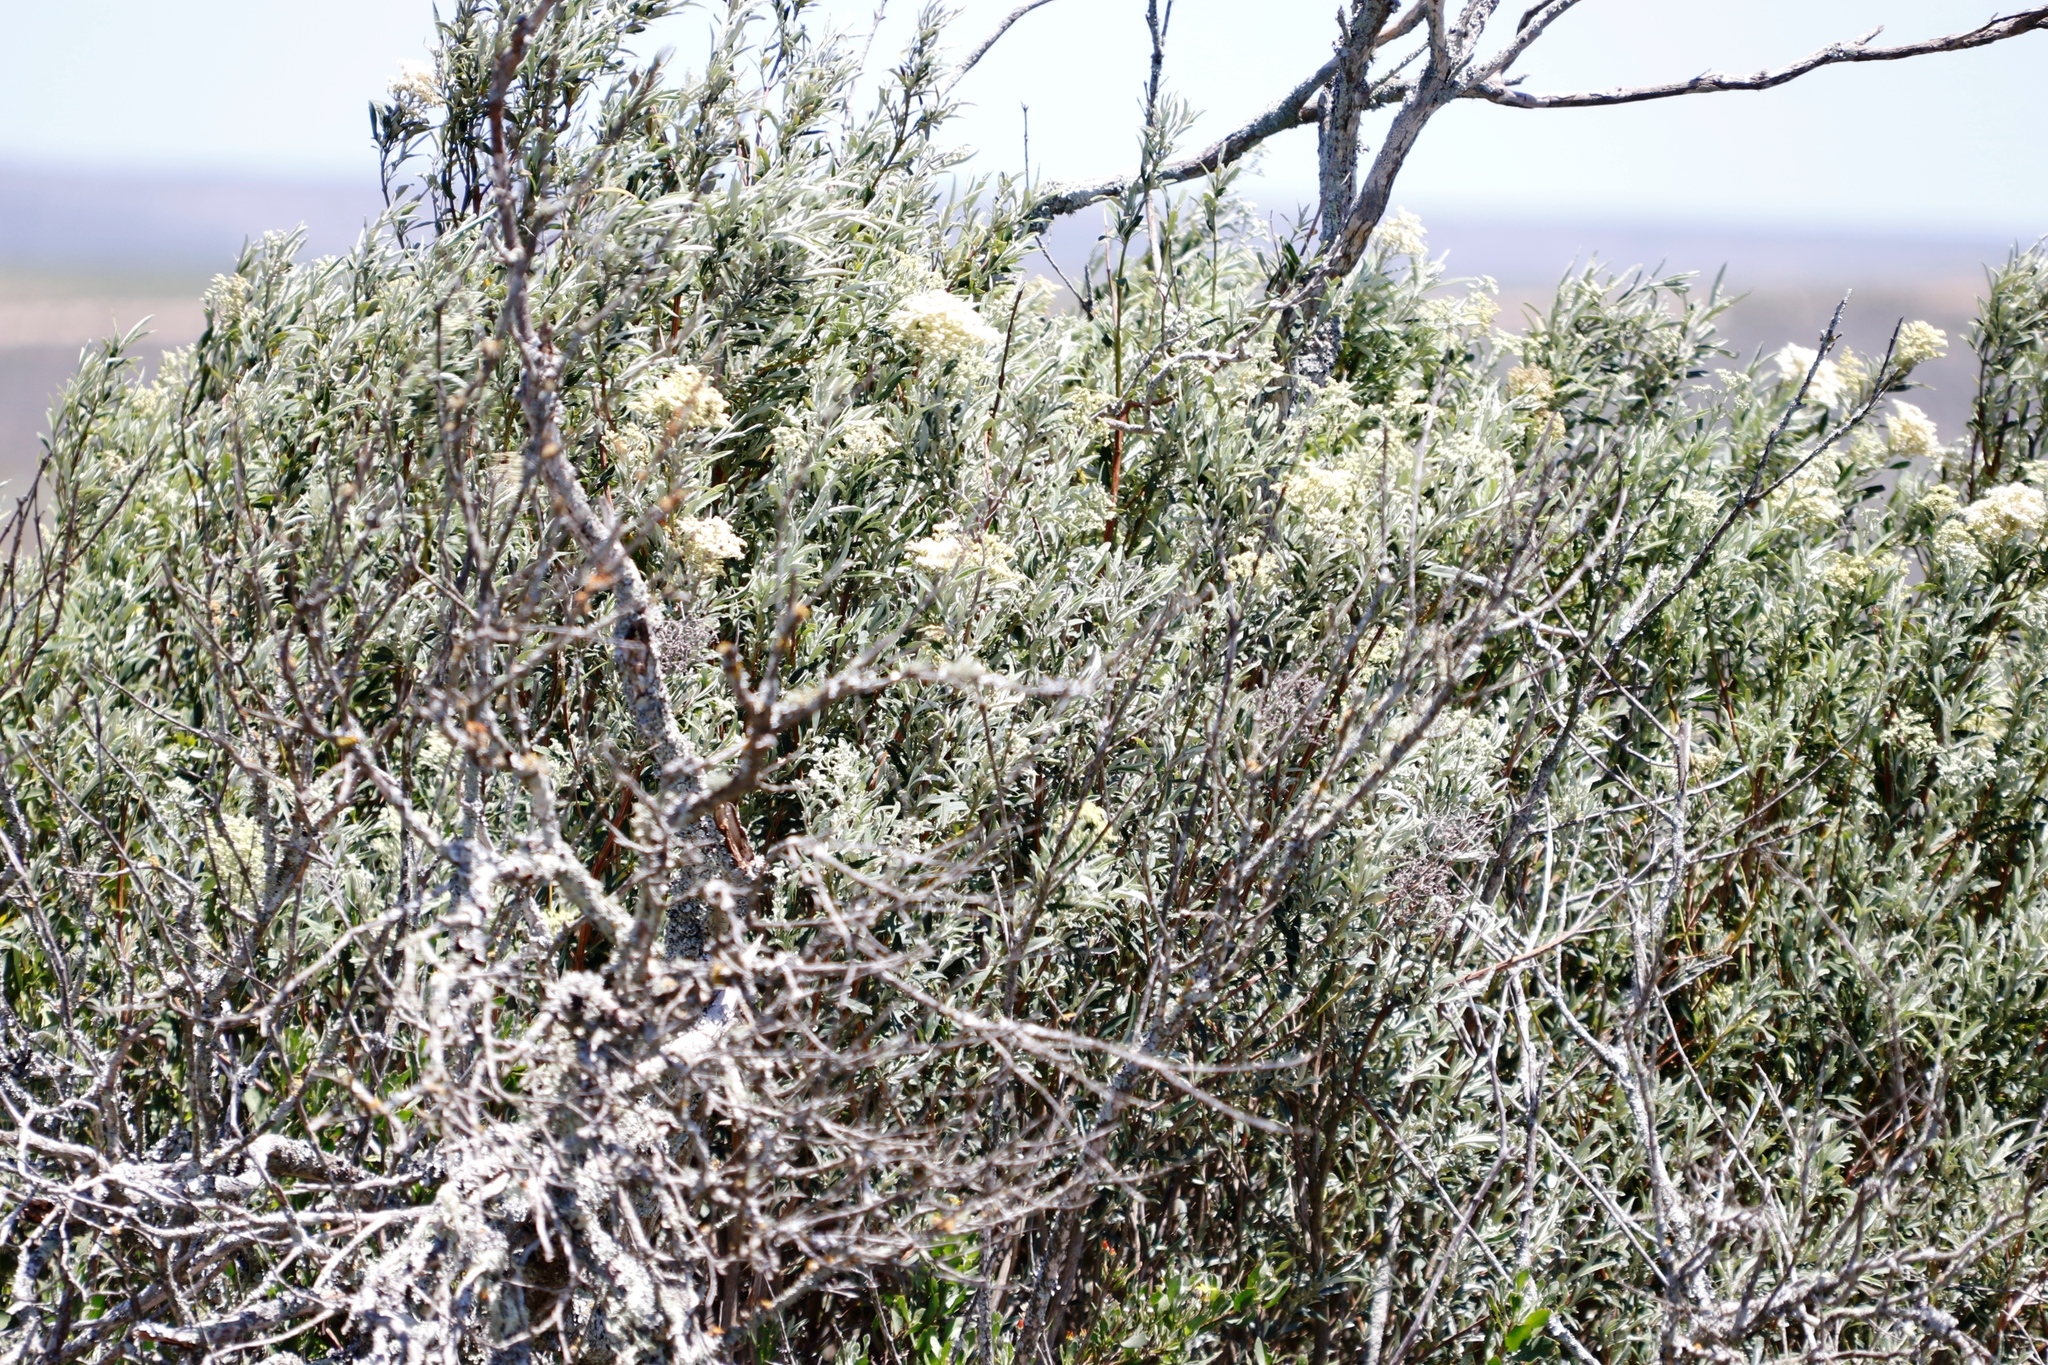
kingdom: Plantae
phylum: Tracheophyta
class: Magnoliopsida
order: Lamiales
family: Scrophulariaceae
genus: Buddleja
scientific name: Buddleja saligna
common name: False olive
